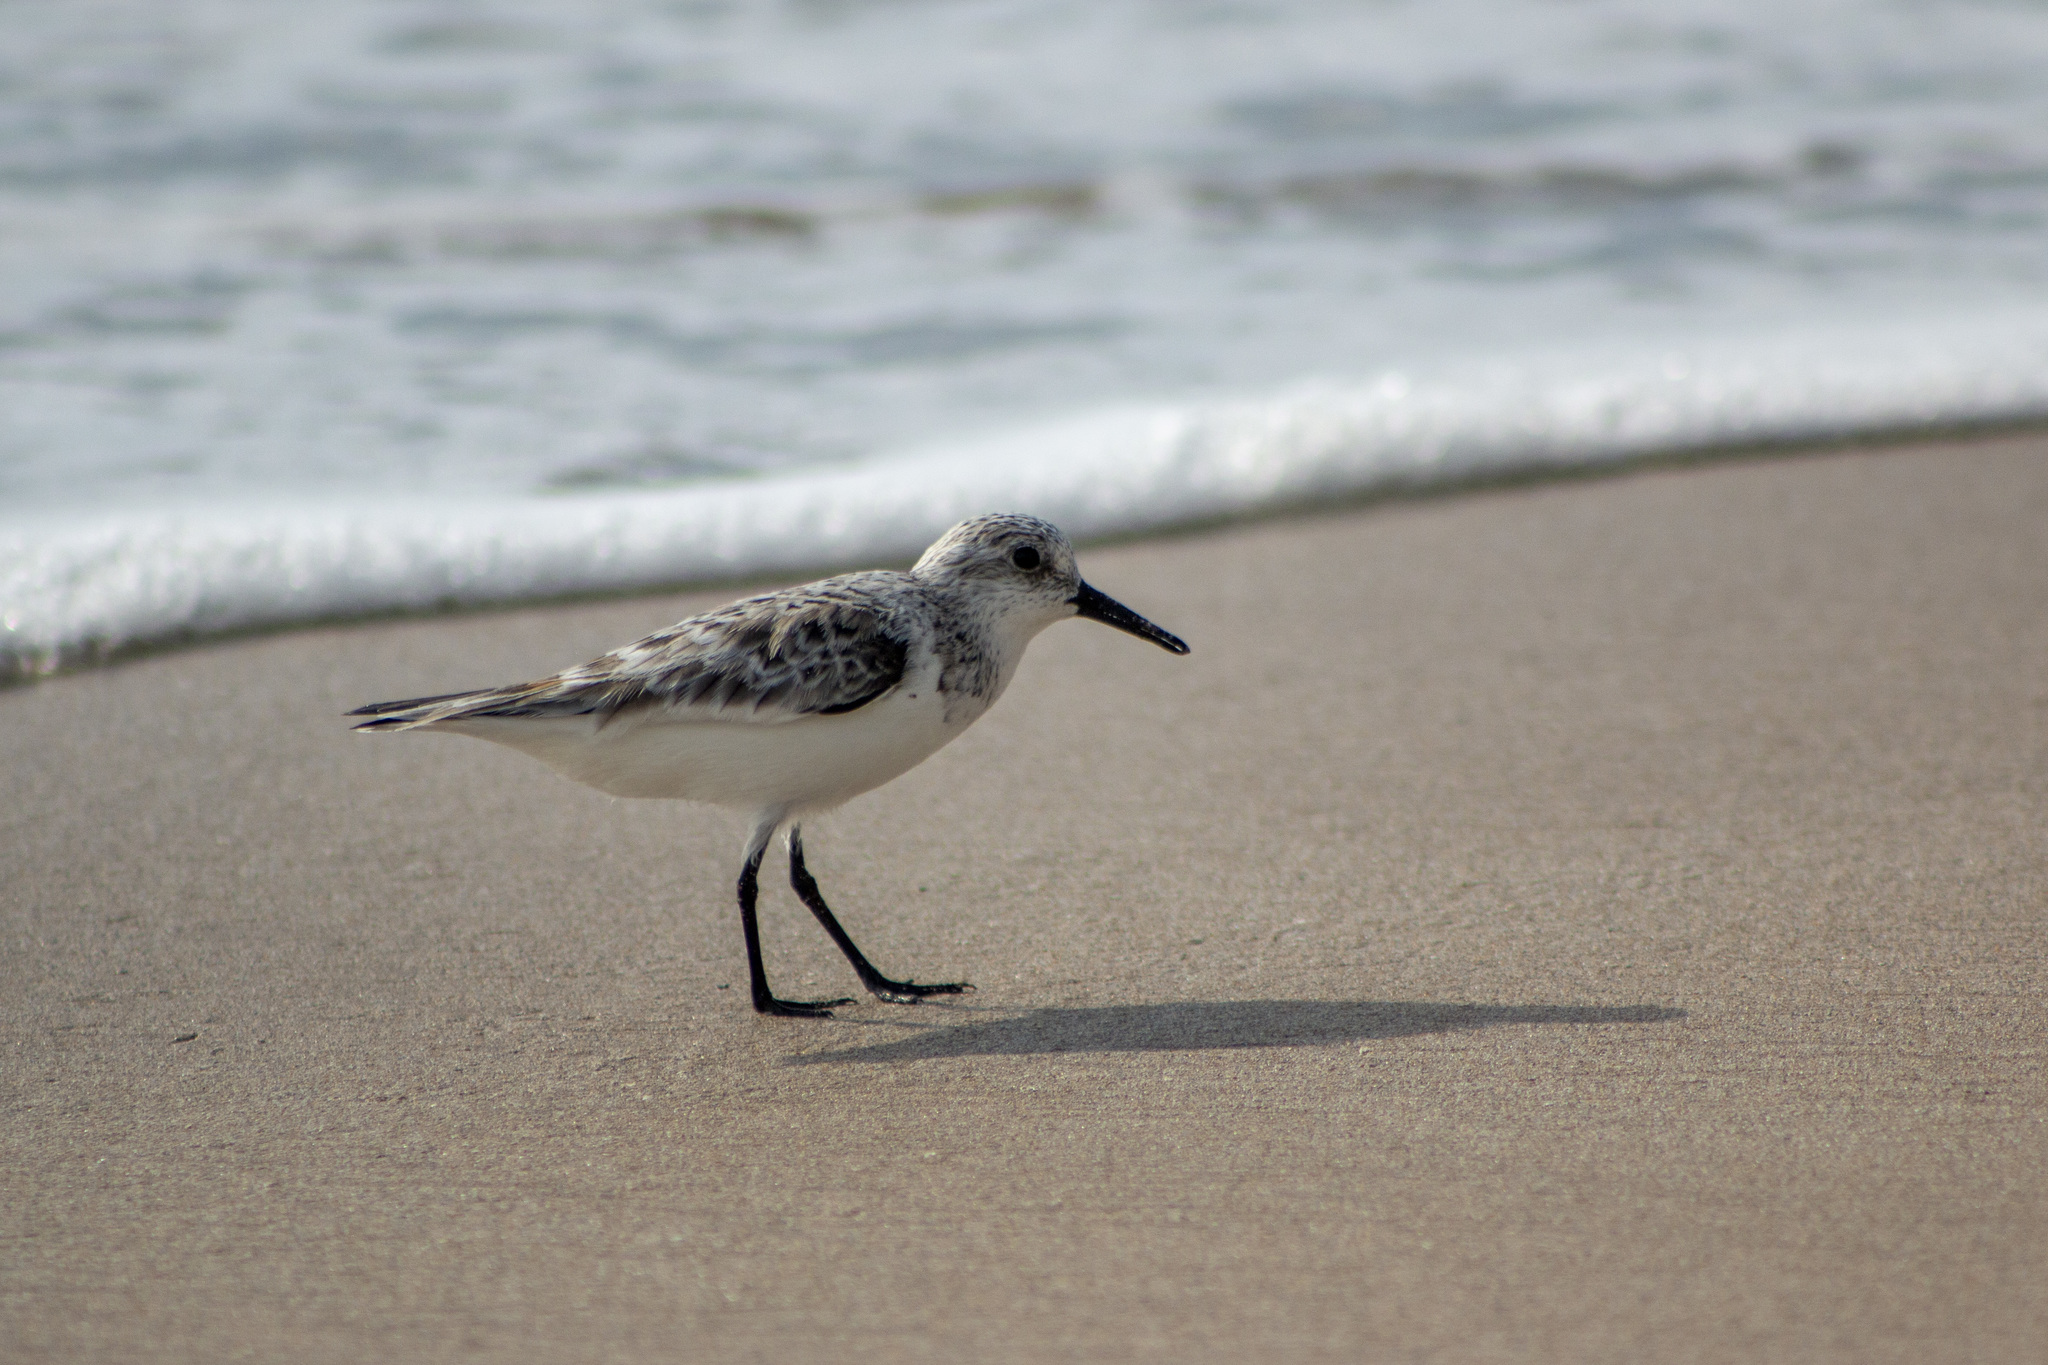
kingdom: Animalia
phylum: Chordata
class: Aves
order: Charadriiformes
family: Scolopacidae
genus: Calidris
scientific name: Calidris alba
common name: Sanderling
